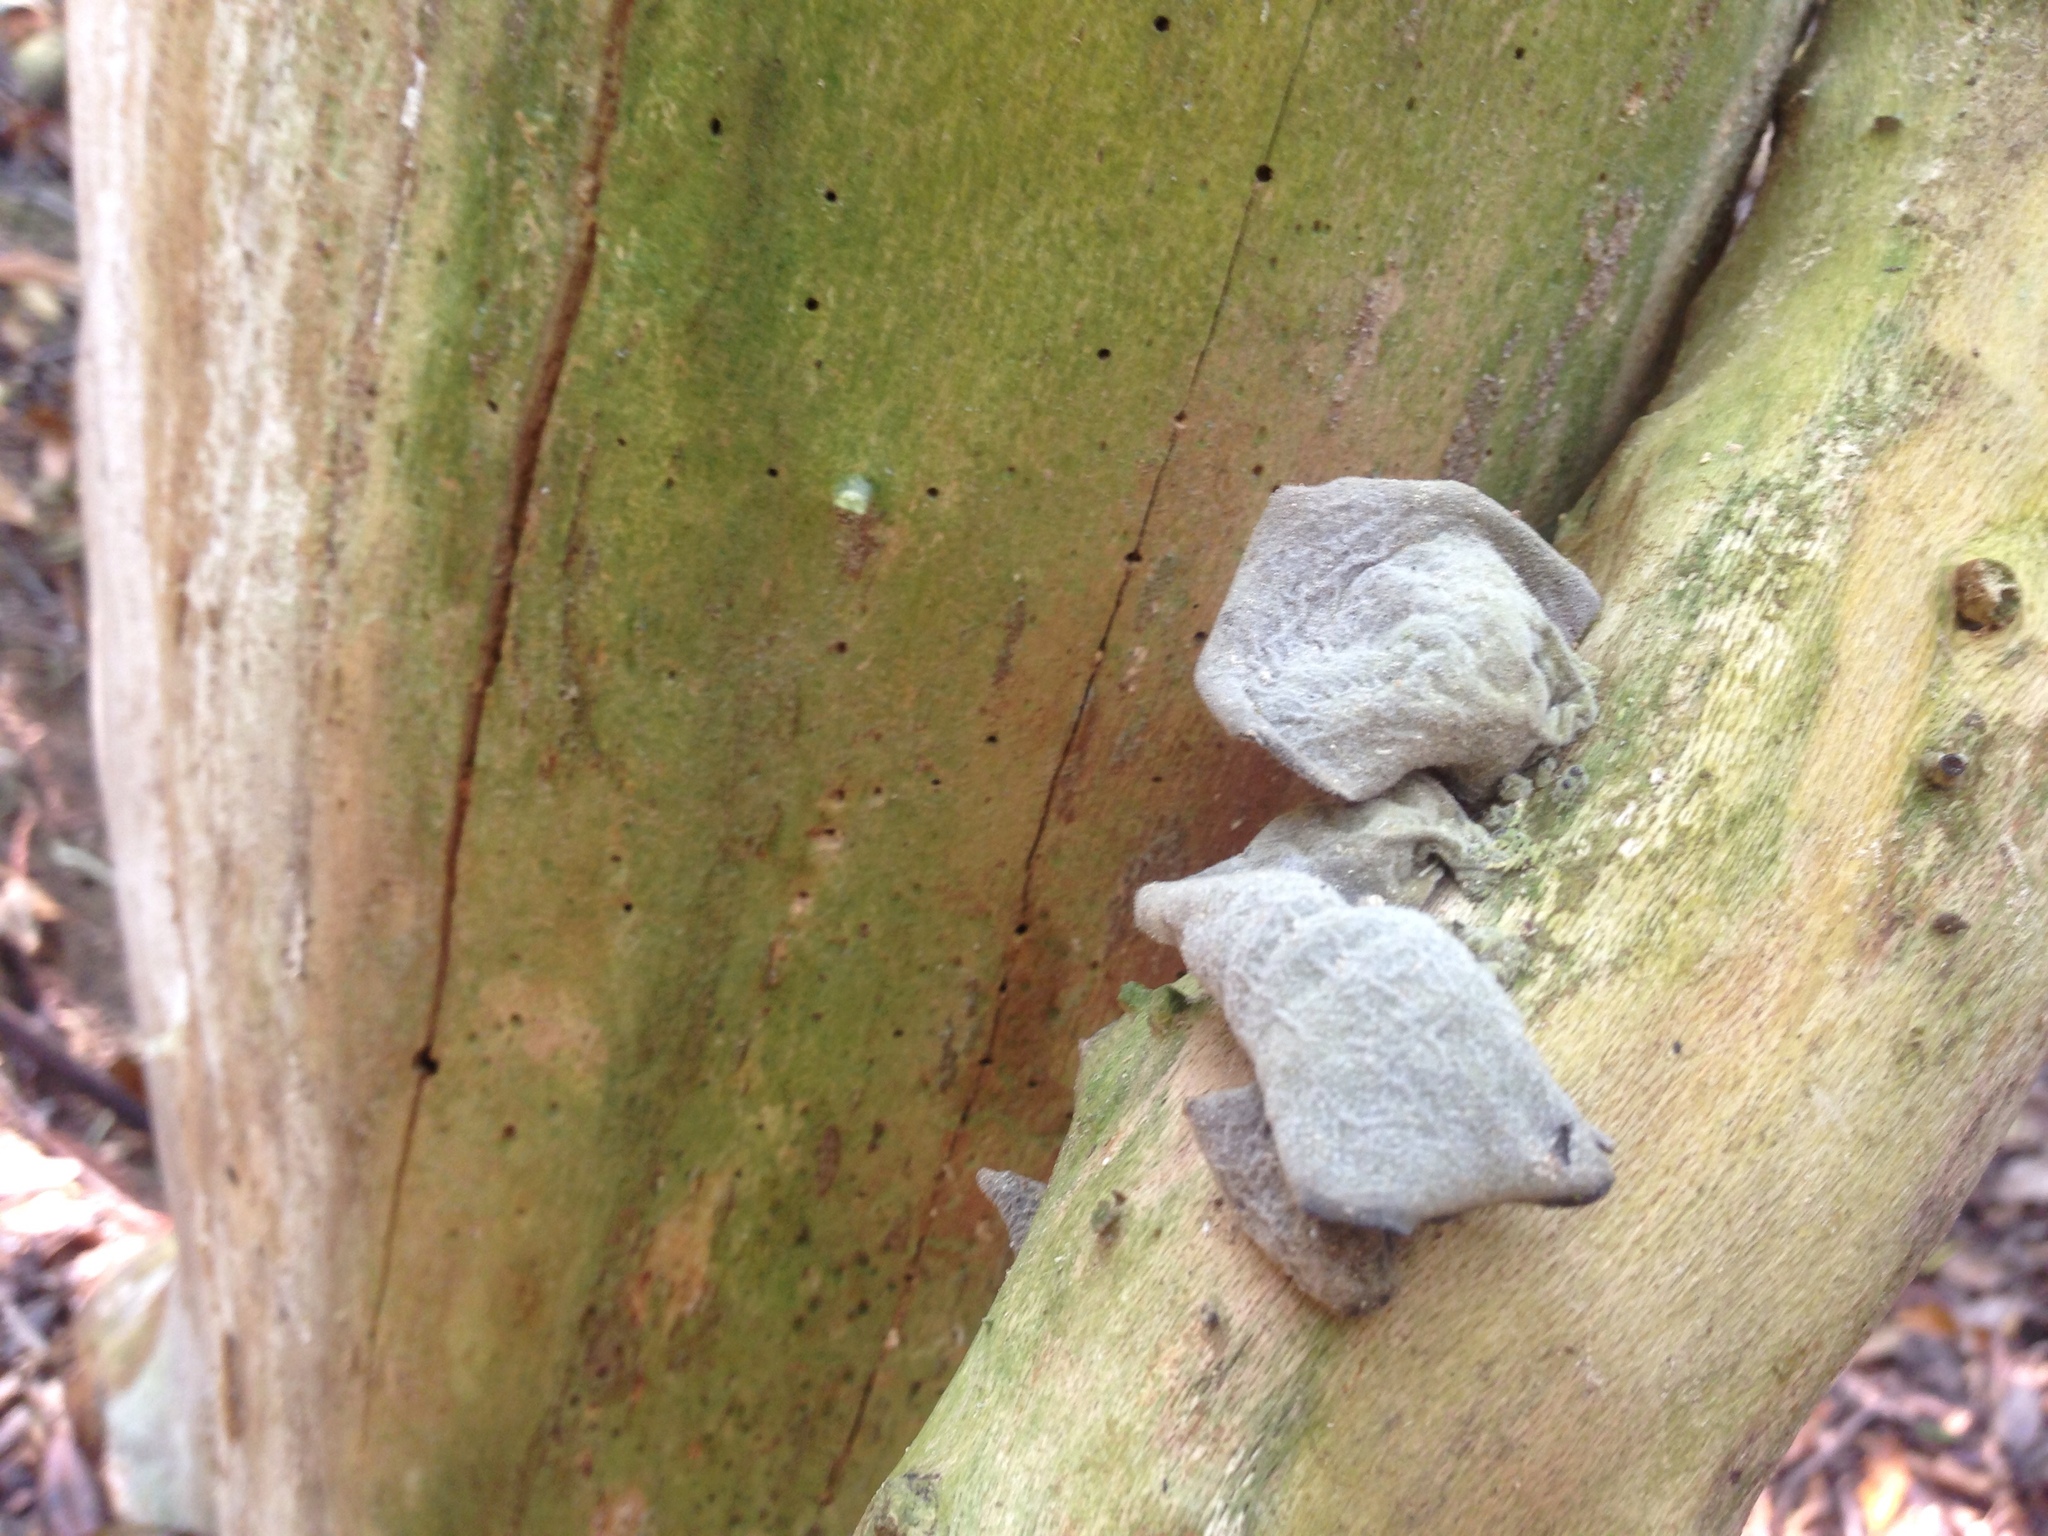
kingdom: Fungi
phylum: Basidiomycota
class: Agaricomycetes
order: Auriculariales
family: Auriculariaceae
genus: Auricularia
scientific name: Auricularia cornea
